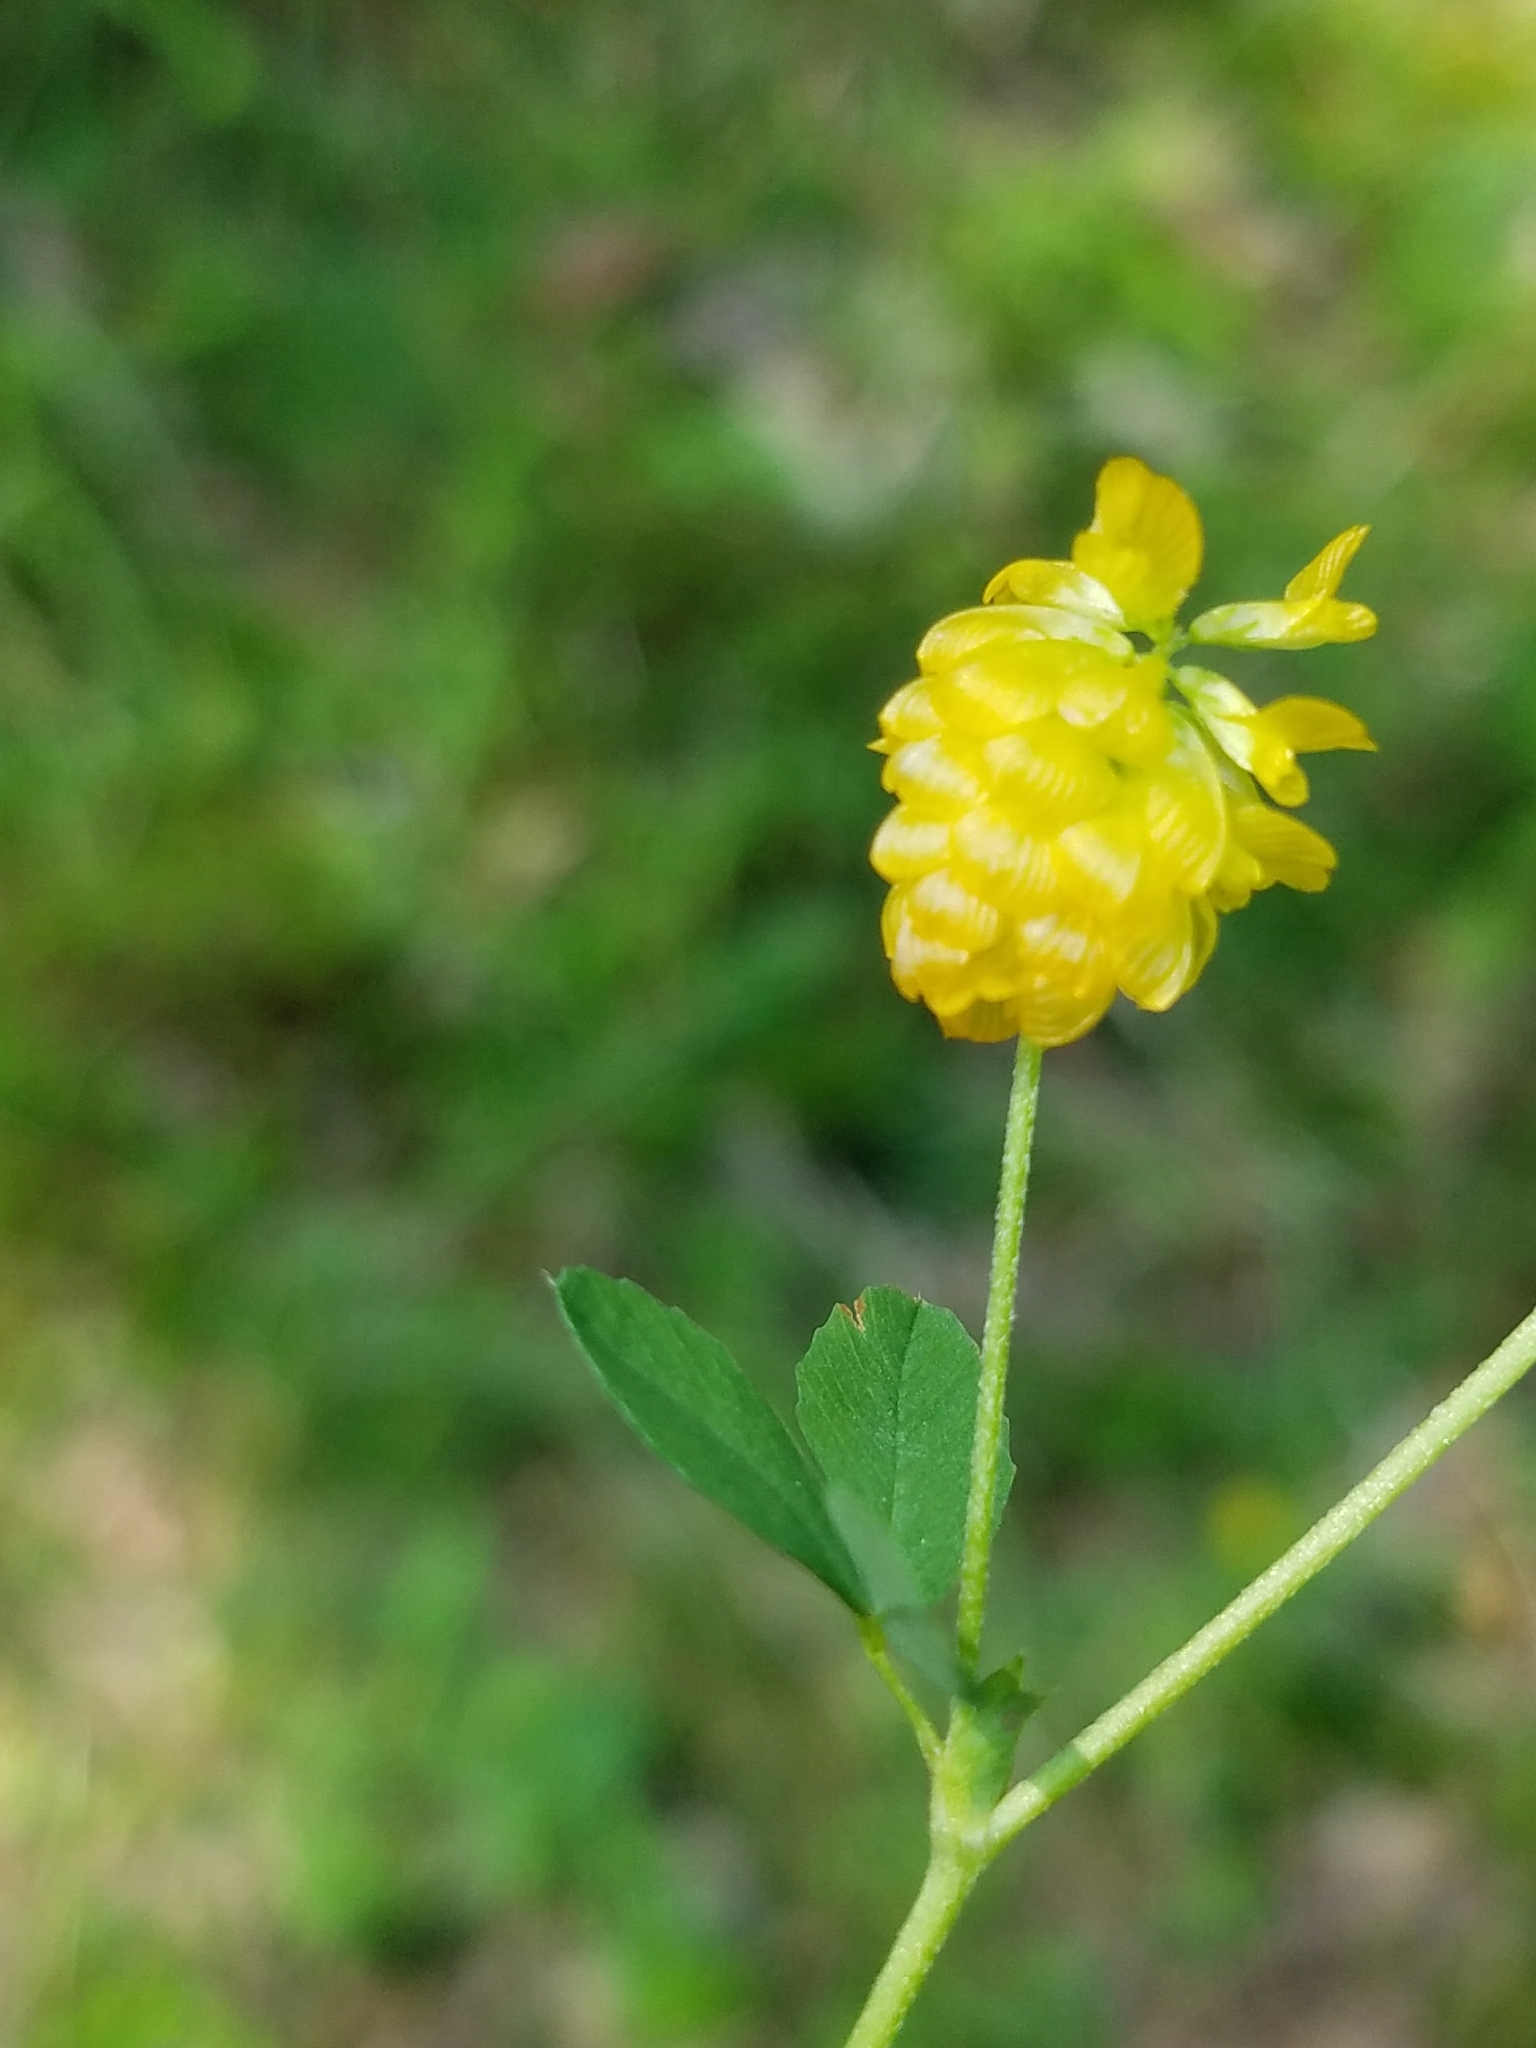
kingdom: Plantae
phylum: Tracheophyta
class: Magnoliopsida
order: Fabales
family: Fabaceae
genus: Trifolium
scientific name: Trifolium aureum
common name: Golden clover
